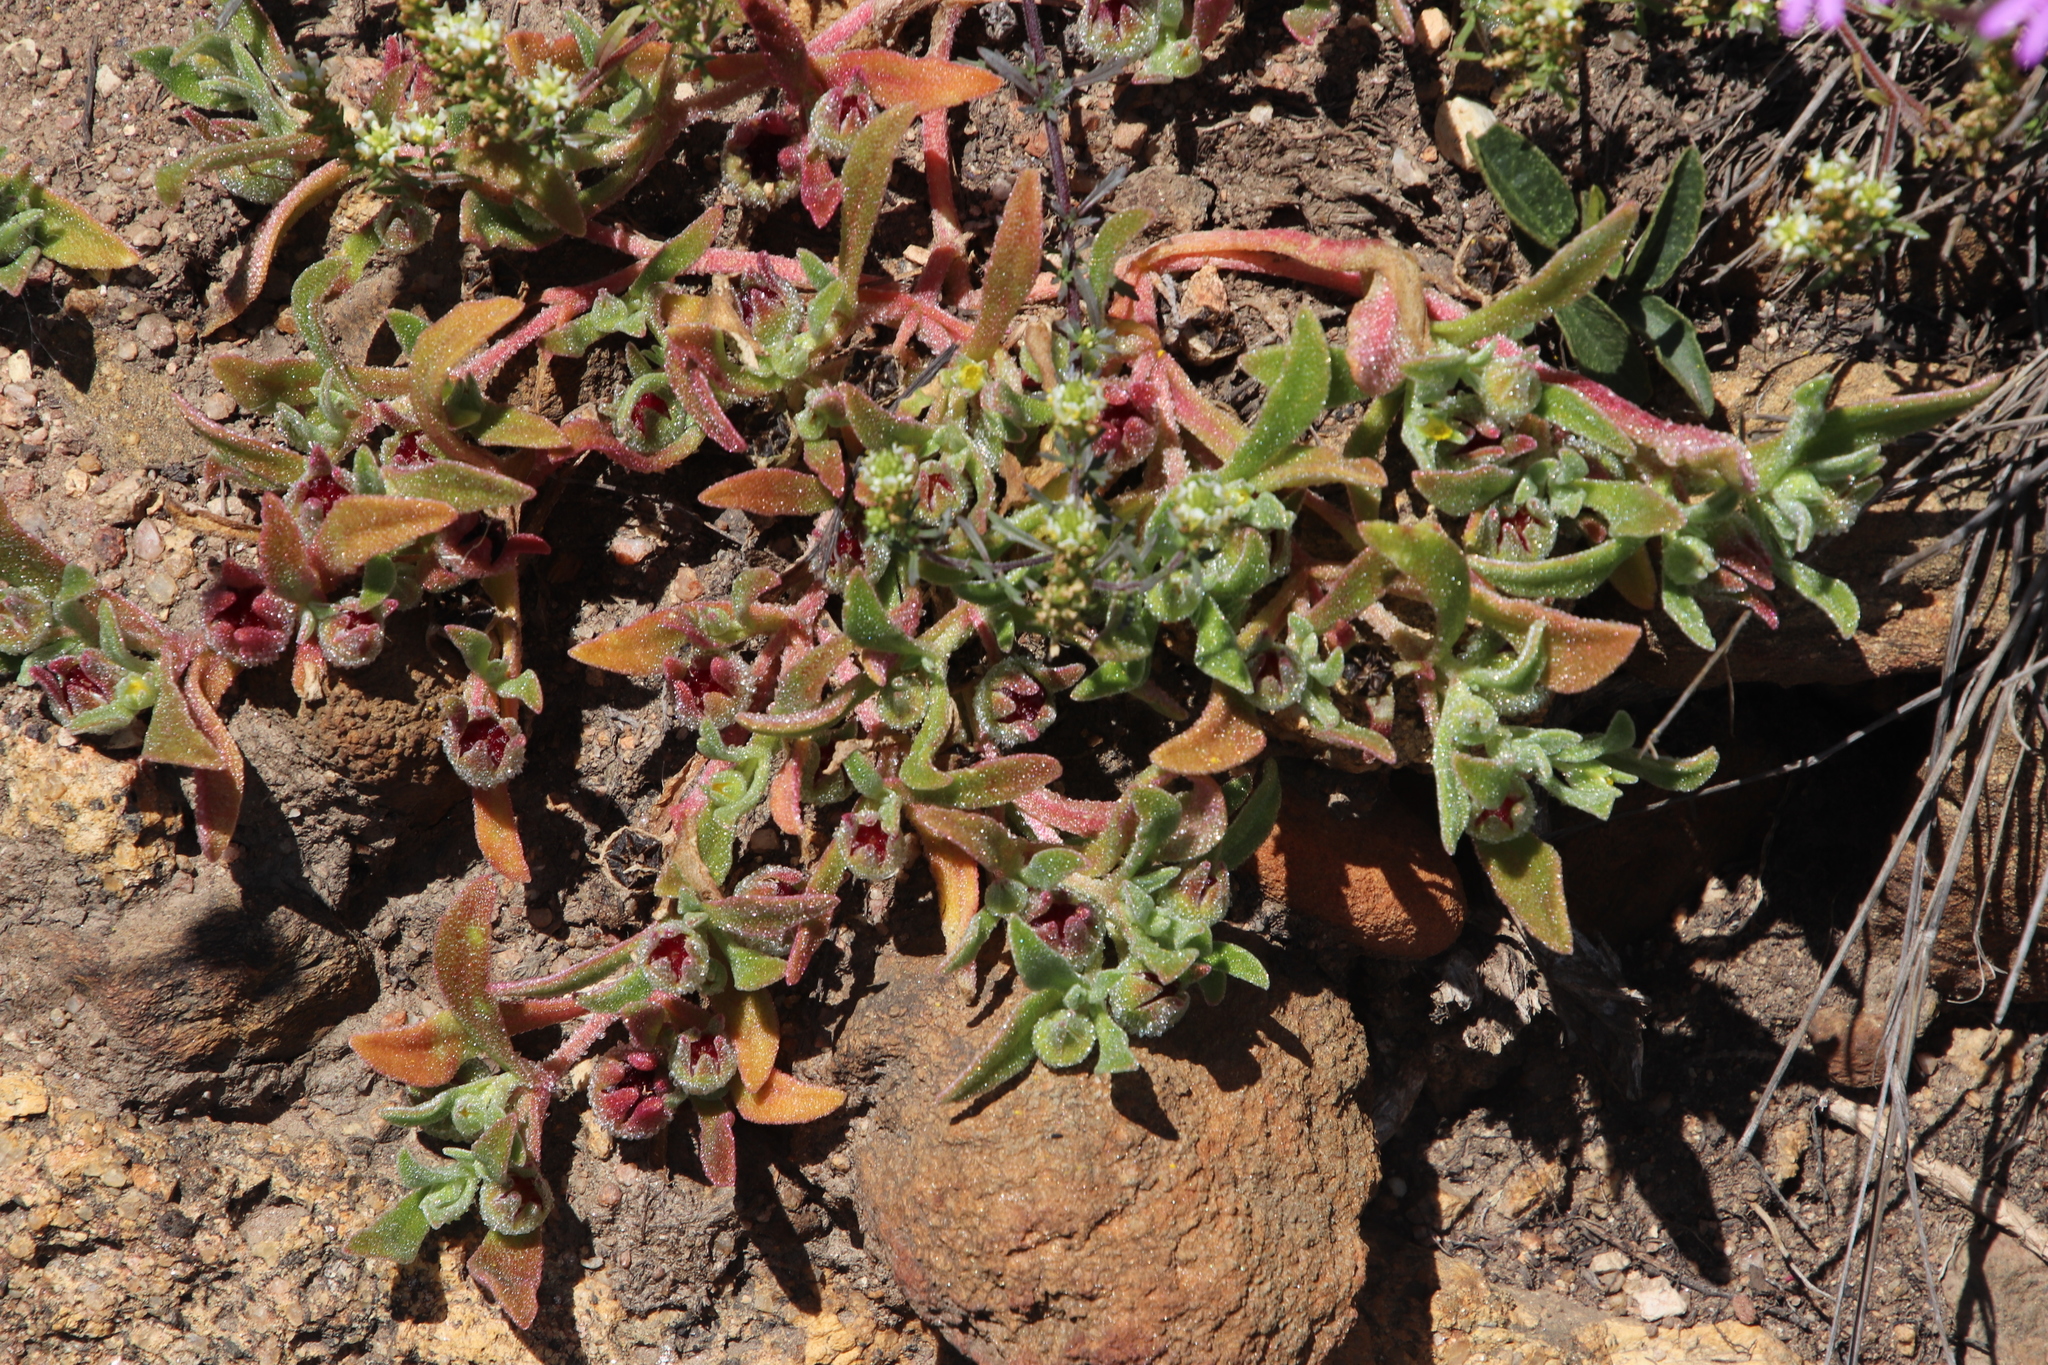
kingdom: Plantae
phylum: Tracheophyta
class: Magnoliopsida
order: Caryophyllales
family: Aizoaceae
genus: Cleretum
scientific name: Cleretum apetalum
